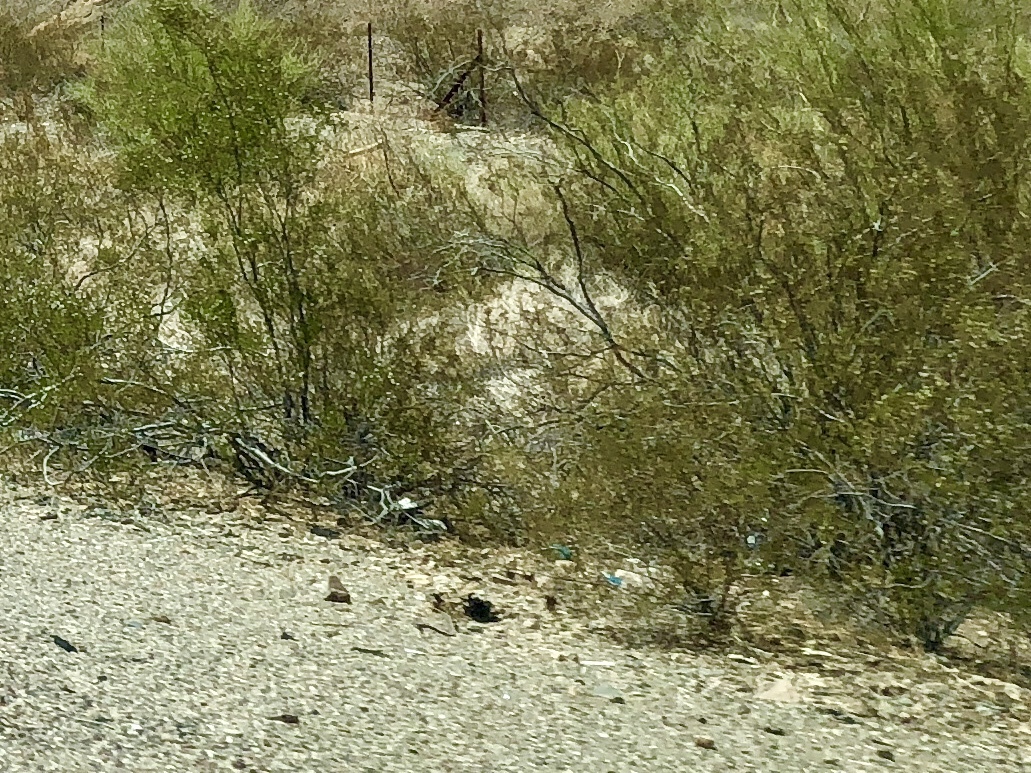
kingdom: Plantae
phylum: Tracheophyta
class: Magnoliopsida
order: Zygophyllales
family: Zygophyllaceae
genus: Larrea
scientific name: Larrea tridentata
